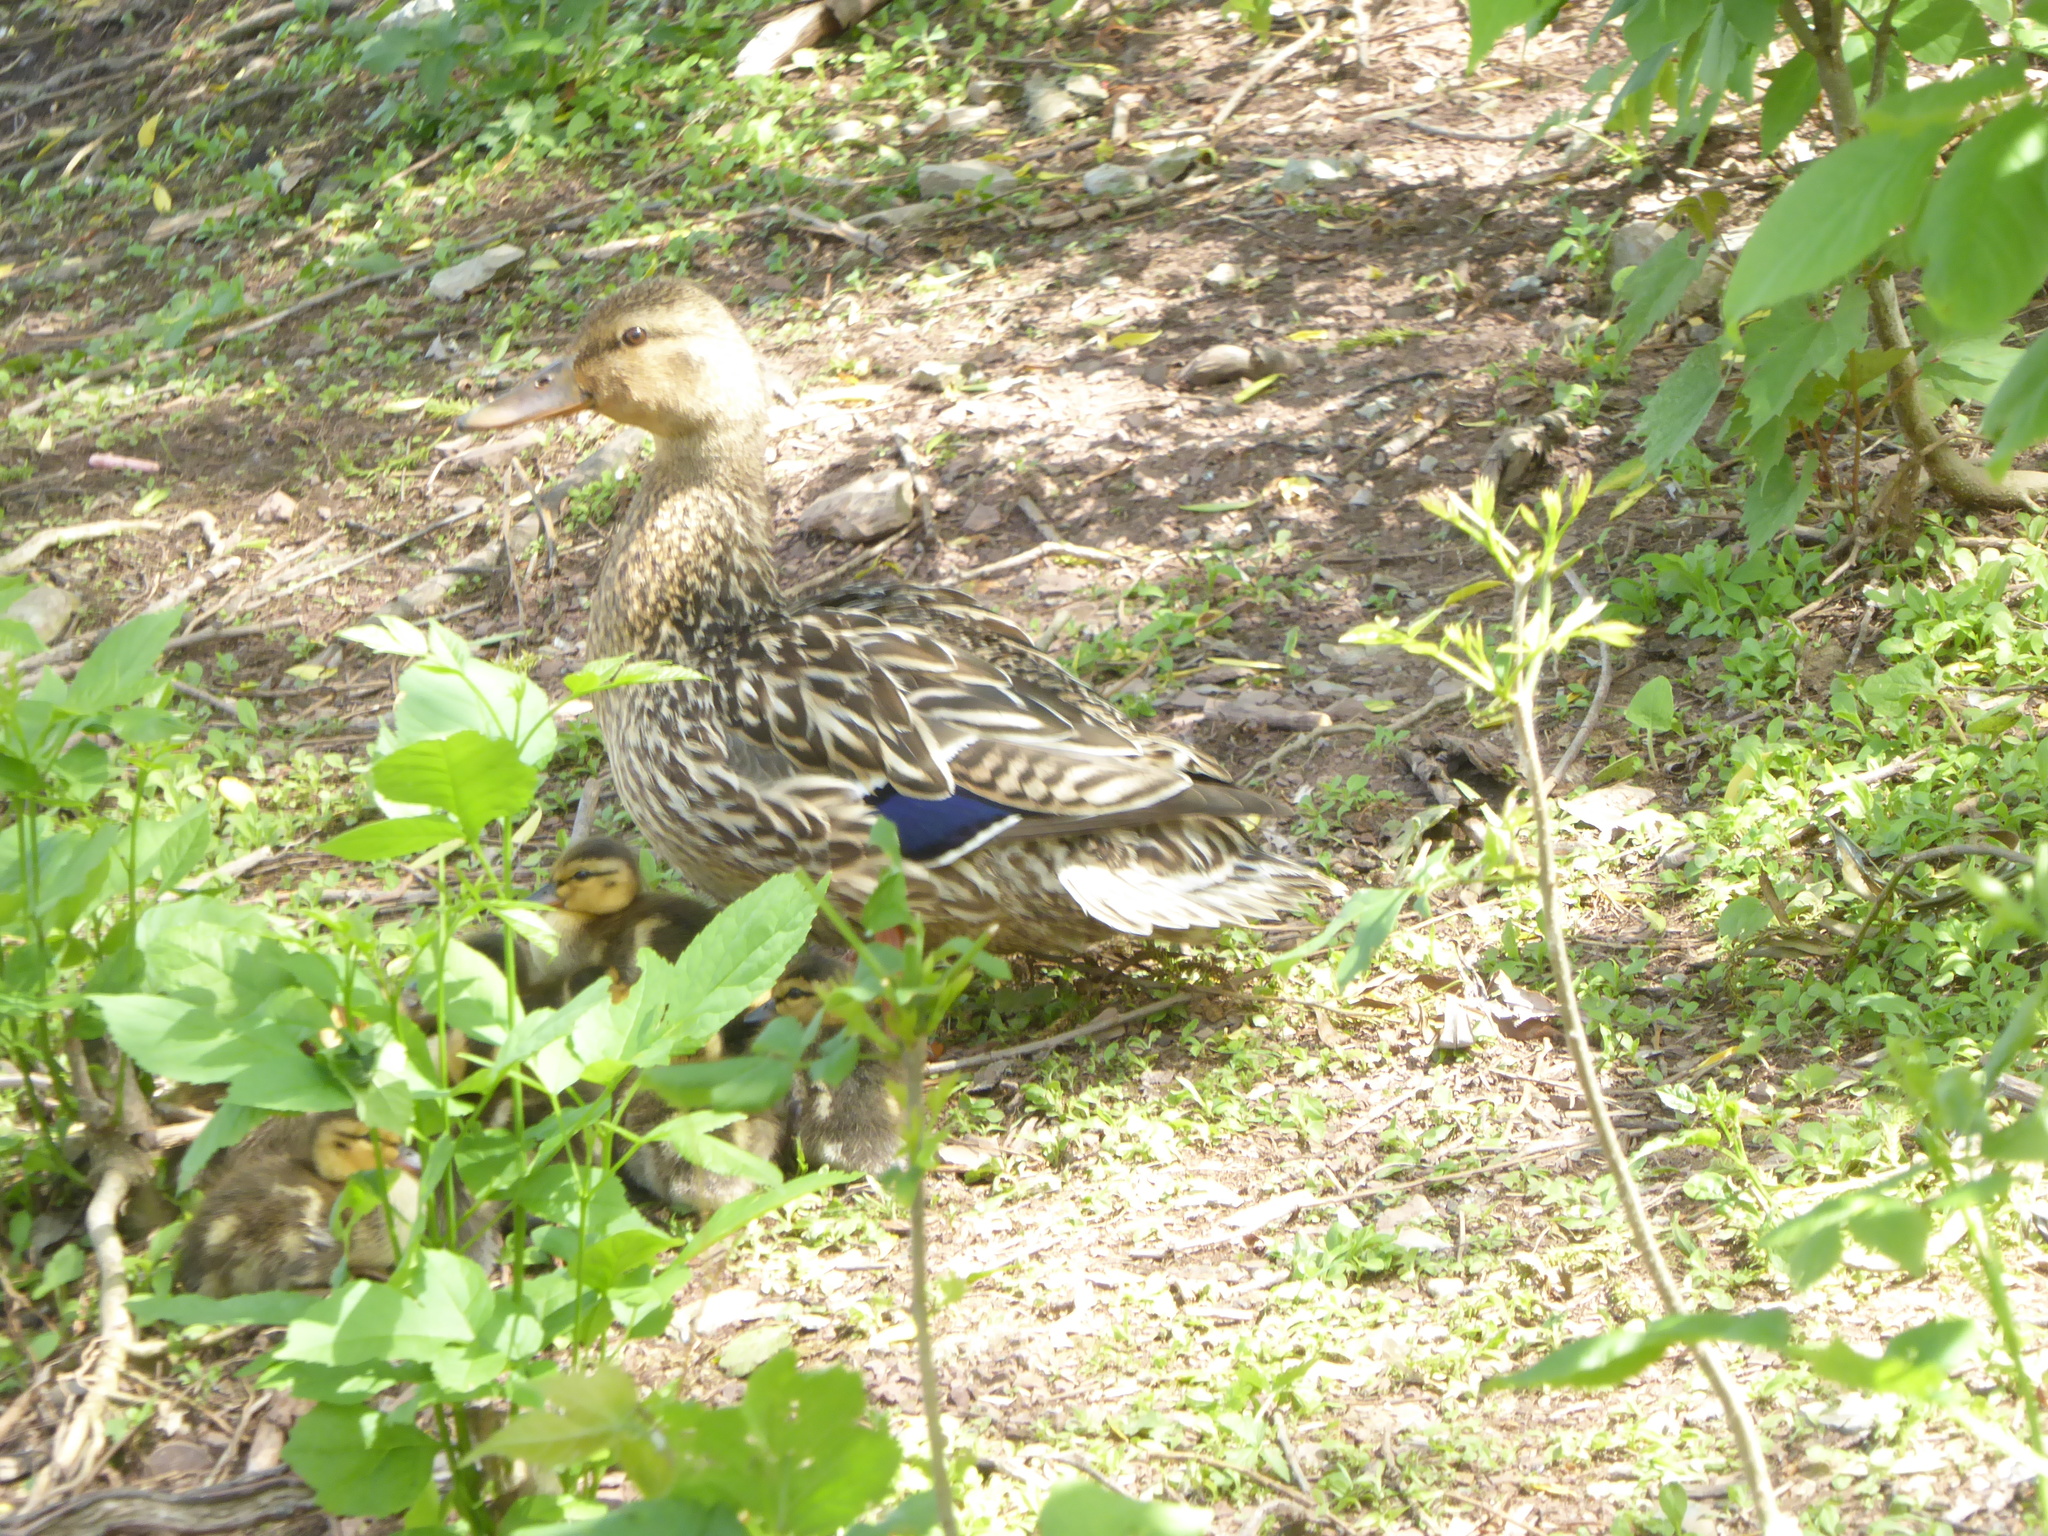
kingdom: Animalia
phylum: Chordata
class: Aves
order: Anseriformes
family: Anatidae
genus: Anas
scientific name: Anas platyrhynchos
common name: Mallard
